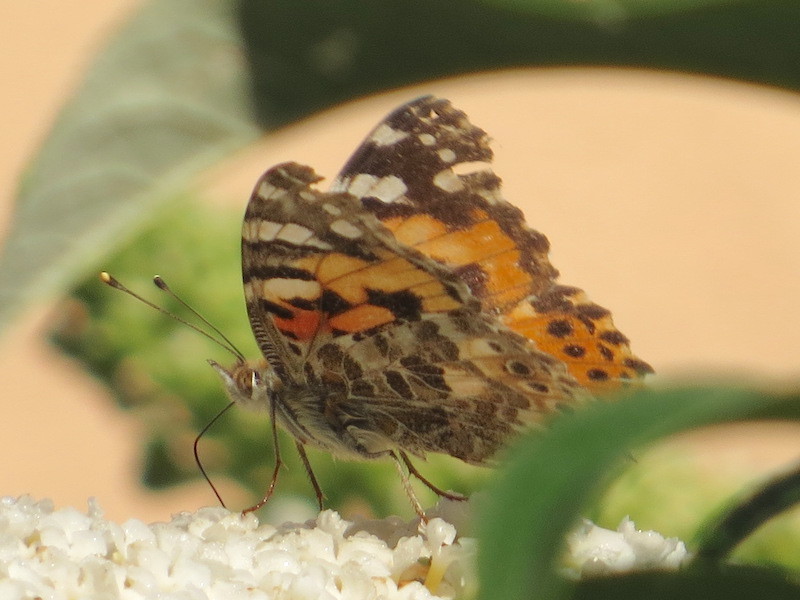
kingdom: Animalia
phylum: Arthropoda
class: Insecta
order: Lepidoptera
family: Nymphalidae
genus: Vanessa
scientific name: Vanessa cardui
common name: Painted lady
